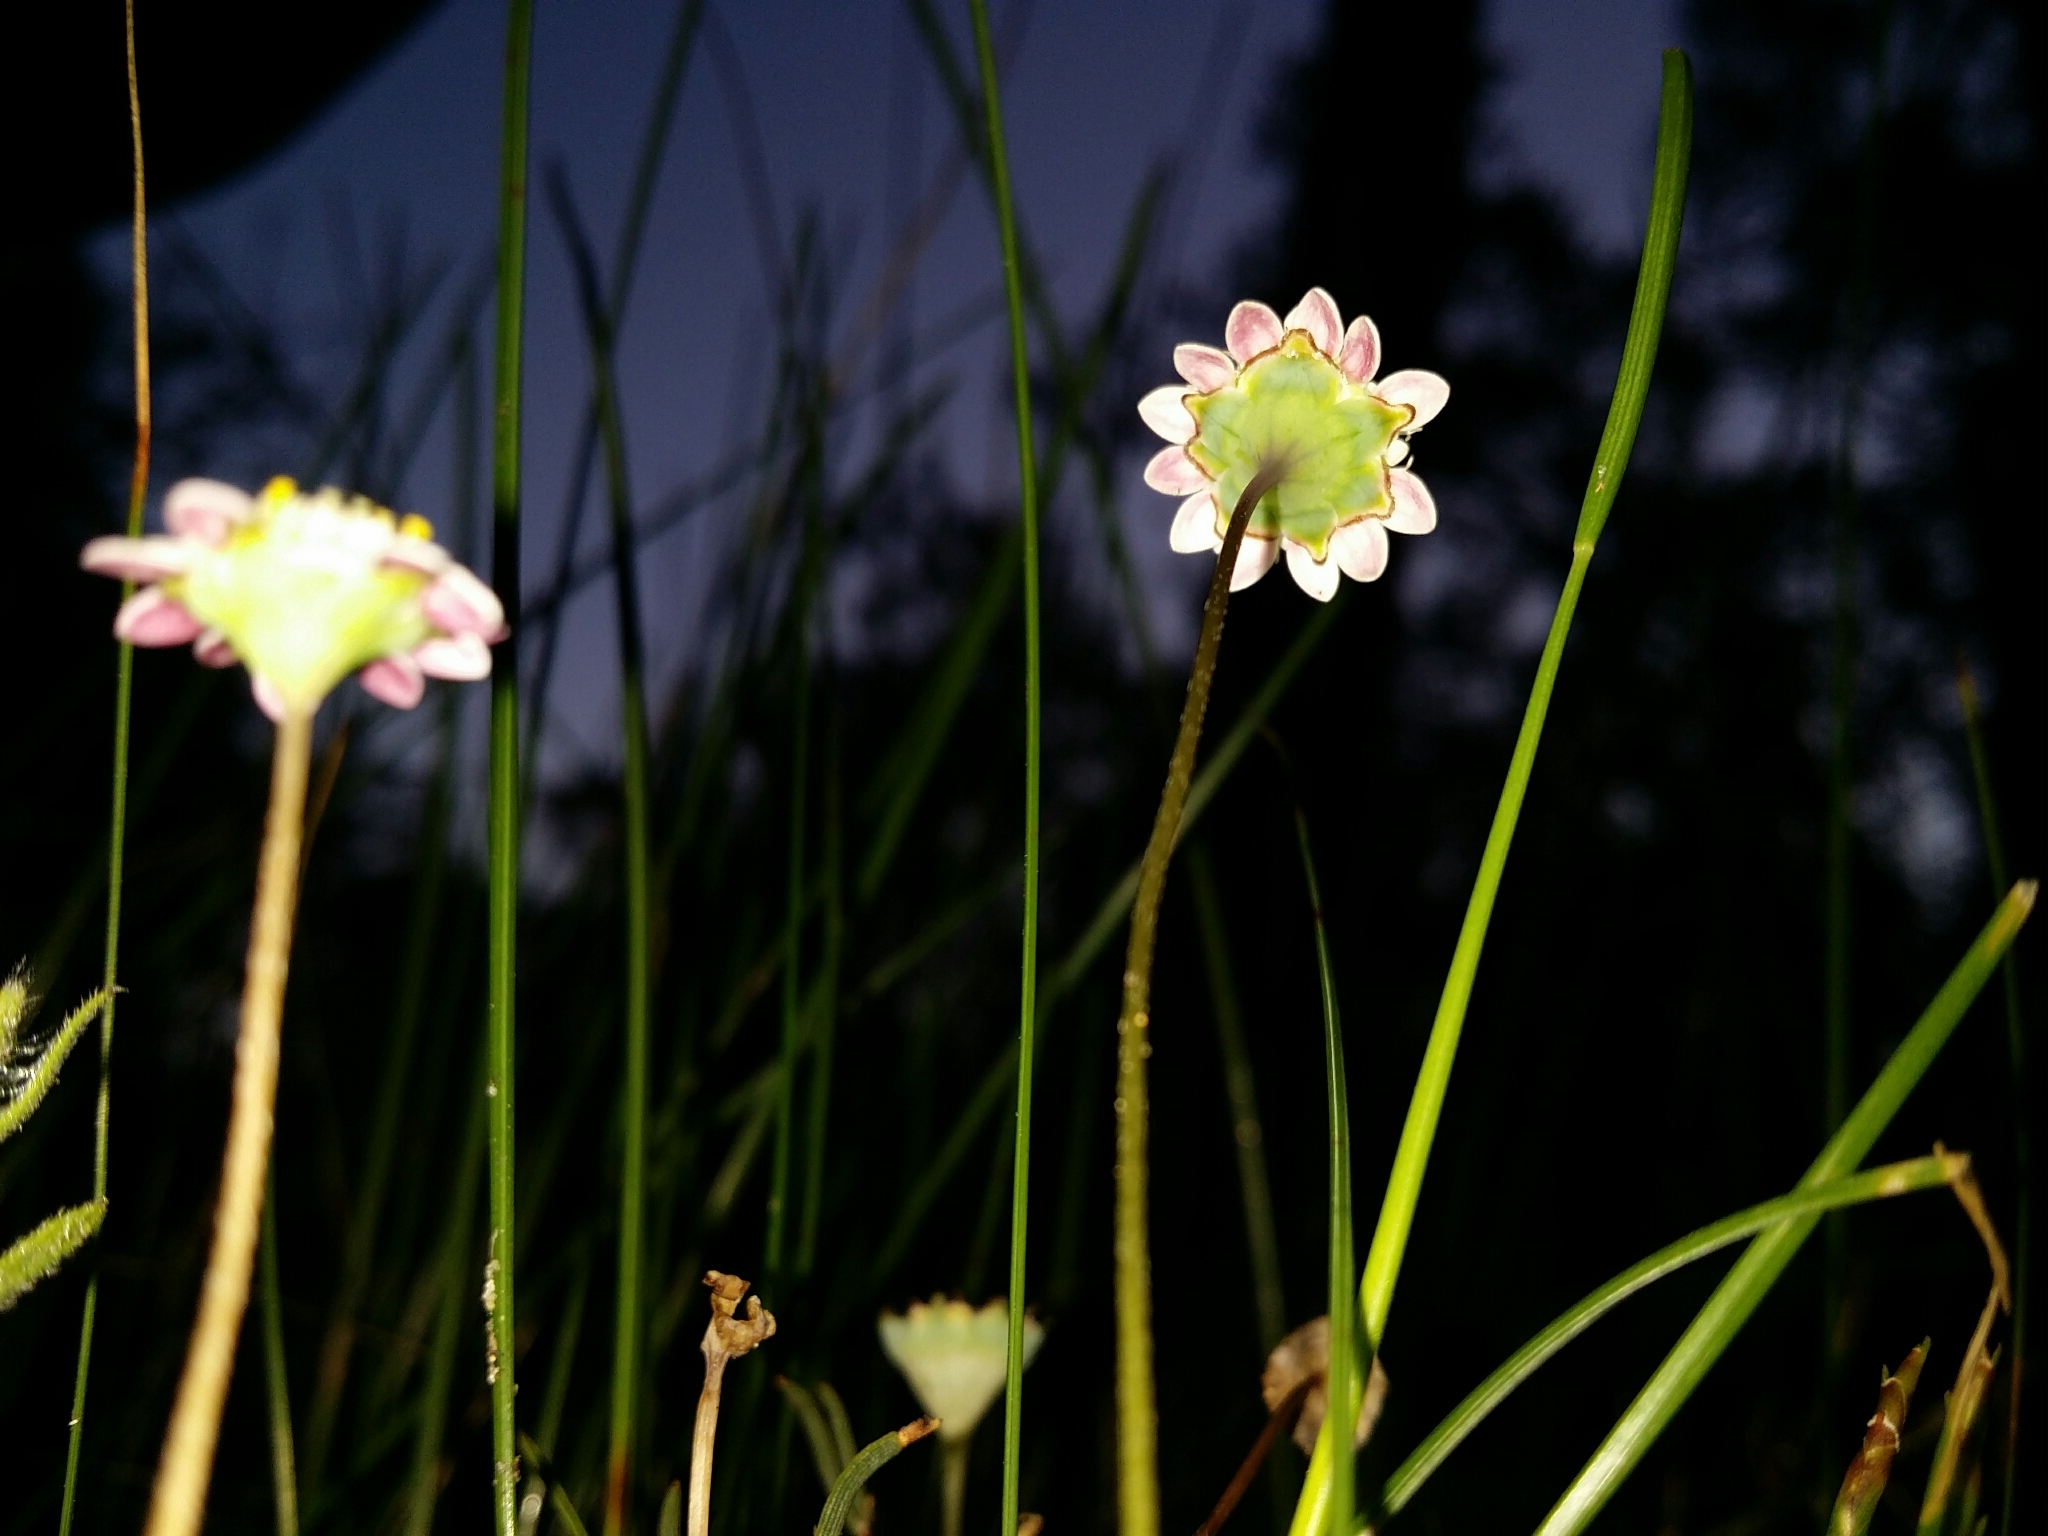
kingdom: Plantae
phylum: Tracheophyta
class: Magnoliopsida
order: Asterales
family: Asteraceae
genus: Cotula
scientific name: Cotula turbinata
